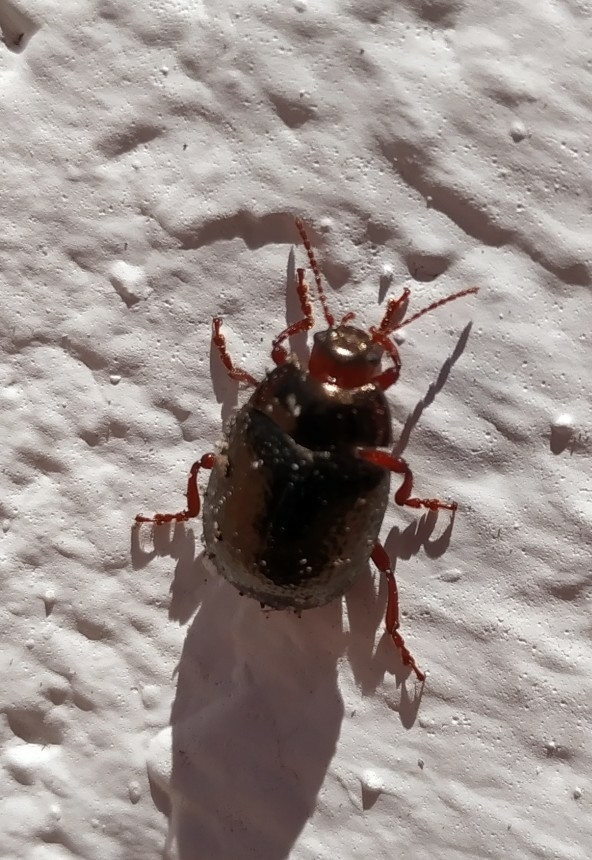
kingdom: Animalia
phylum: Arthropoda
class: Insecta
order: Coleoptera
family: Chrysomelidae
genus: Chrysolina
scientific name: Chrysolina bankii
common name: Leaf beetle
